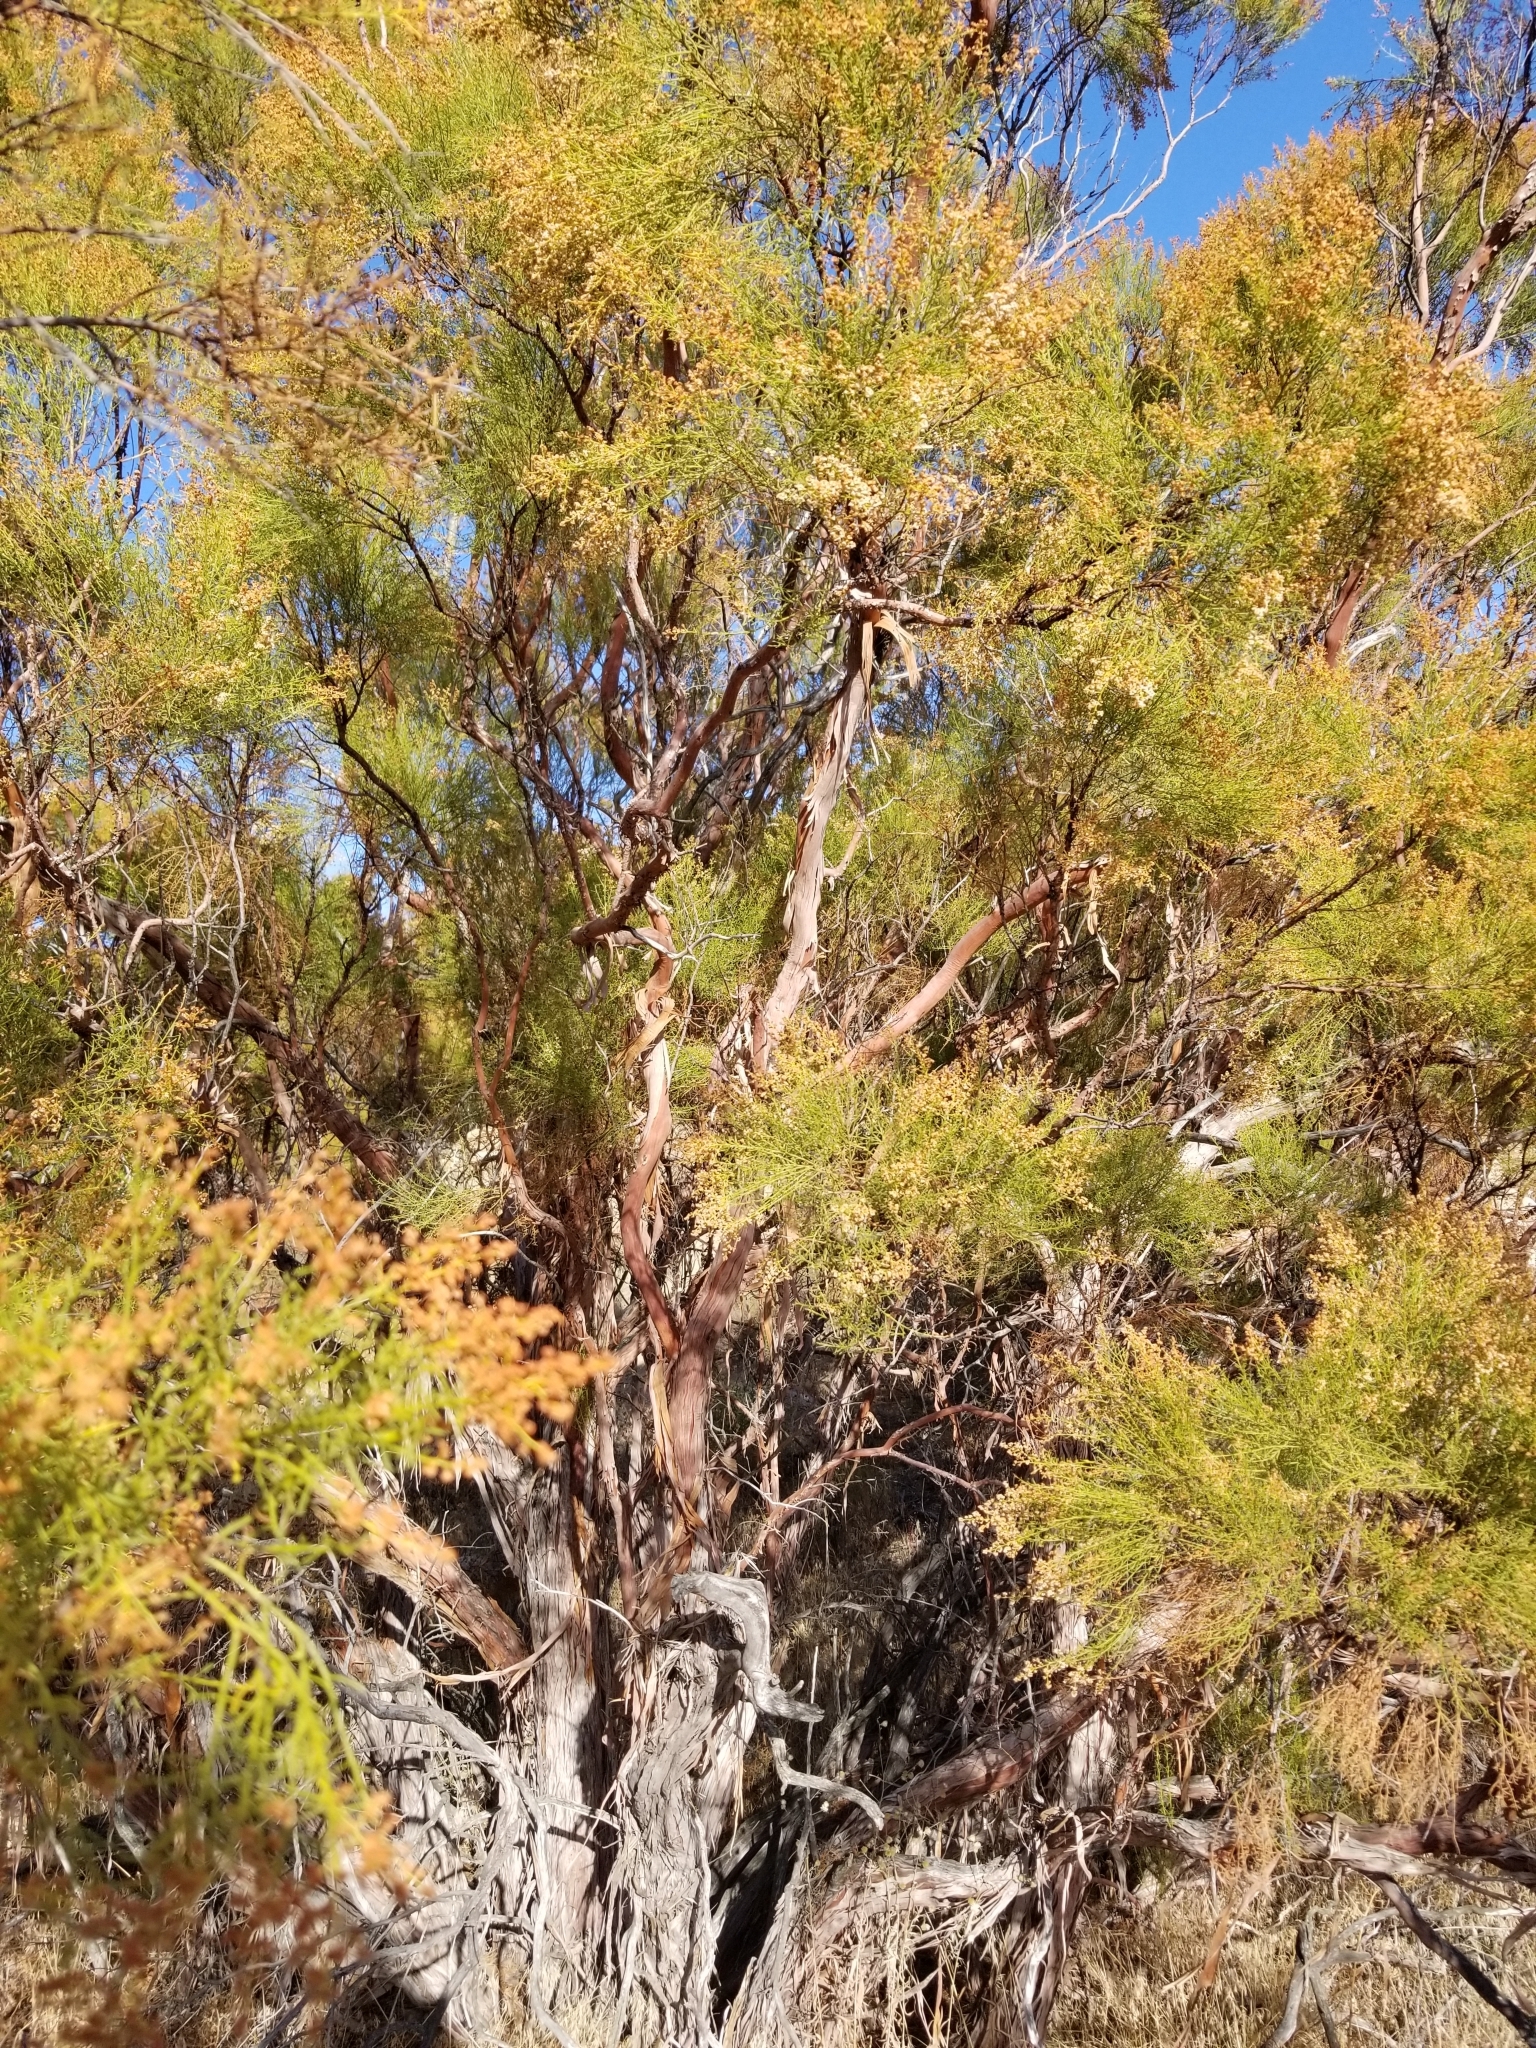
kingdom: Plantae
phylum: Tracheophyta
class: Magnoliopsida
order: Rosales
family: Rosaceae
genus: Adenostoma
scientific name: Adenostoma sparsifolium
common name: Red shank
